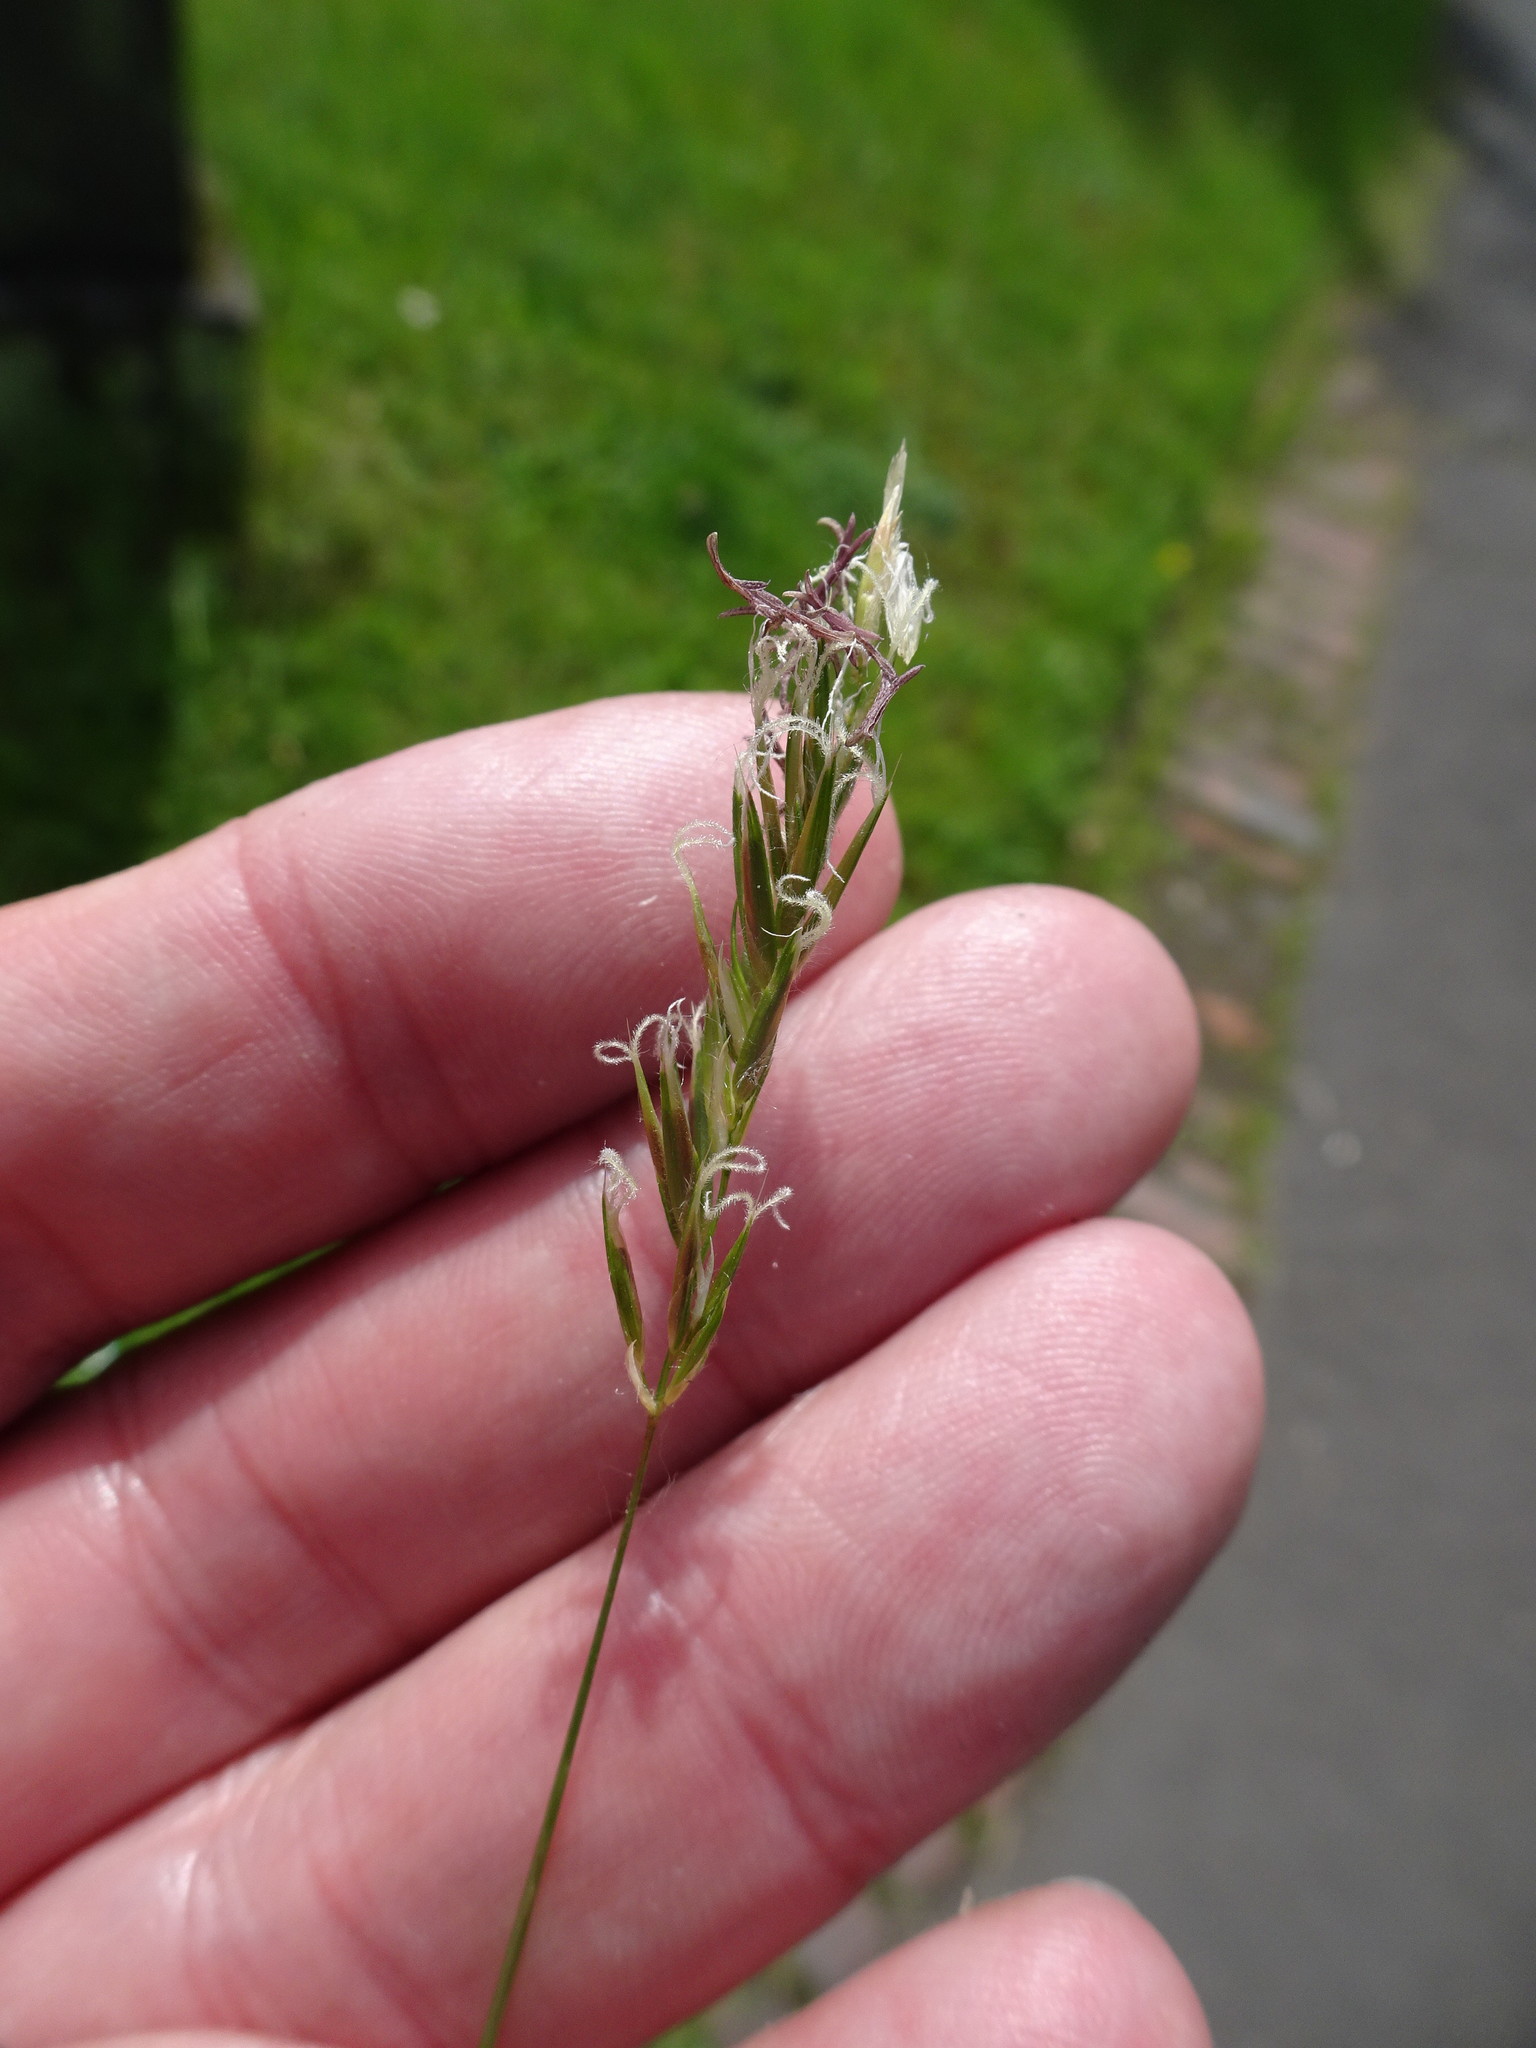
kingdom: Plantae
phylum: Tracheophyta
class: Liliopsida
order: Poales
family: Poaceae
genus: Anthoxanthum
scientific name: Anthoxanthum odoratum
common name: Sweet vernalgrass
